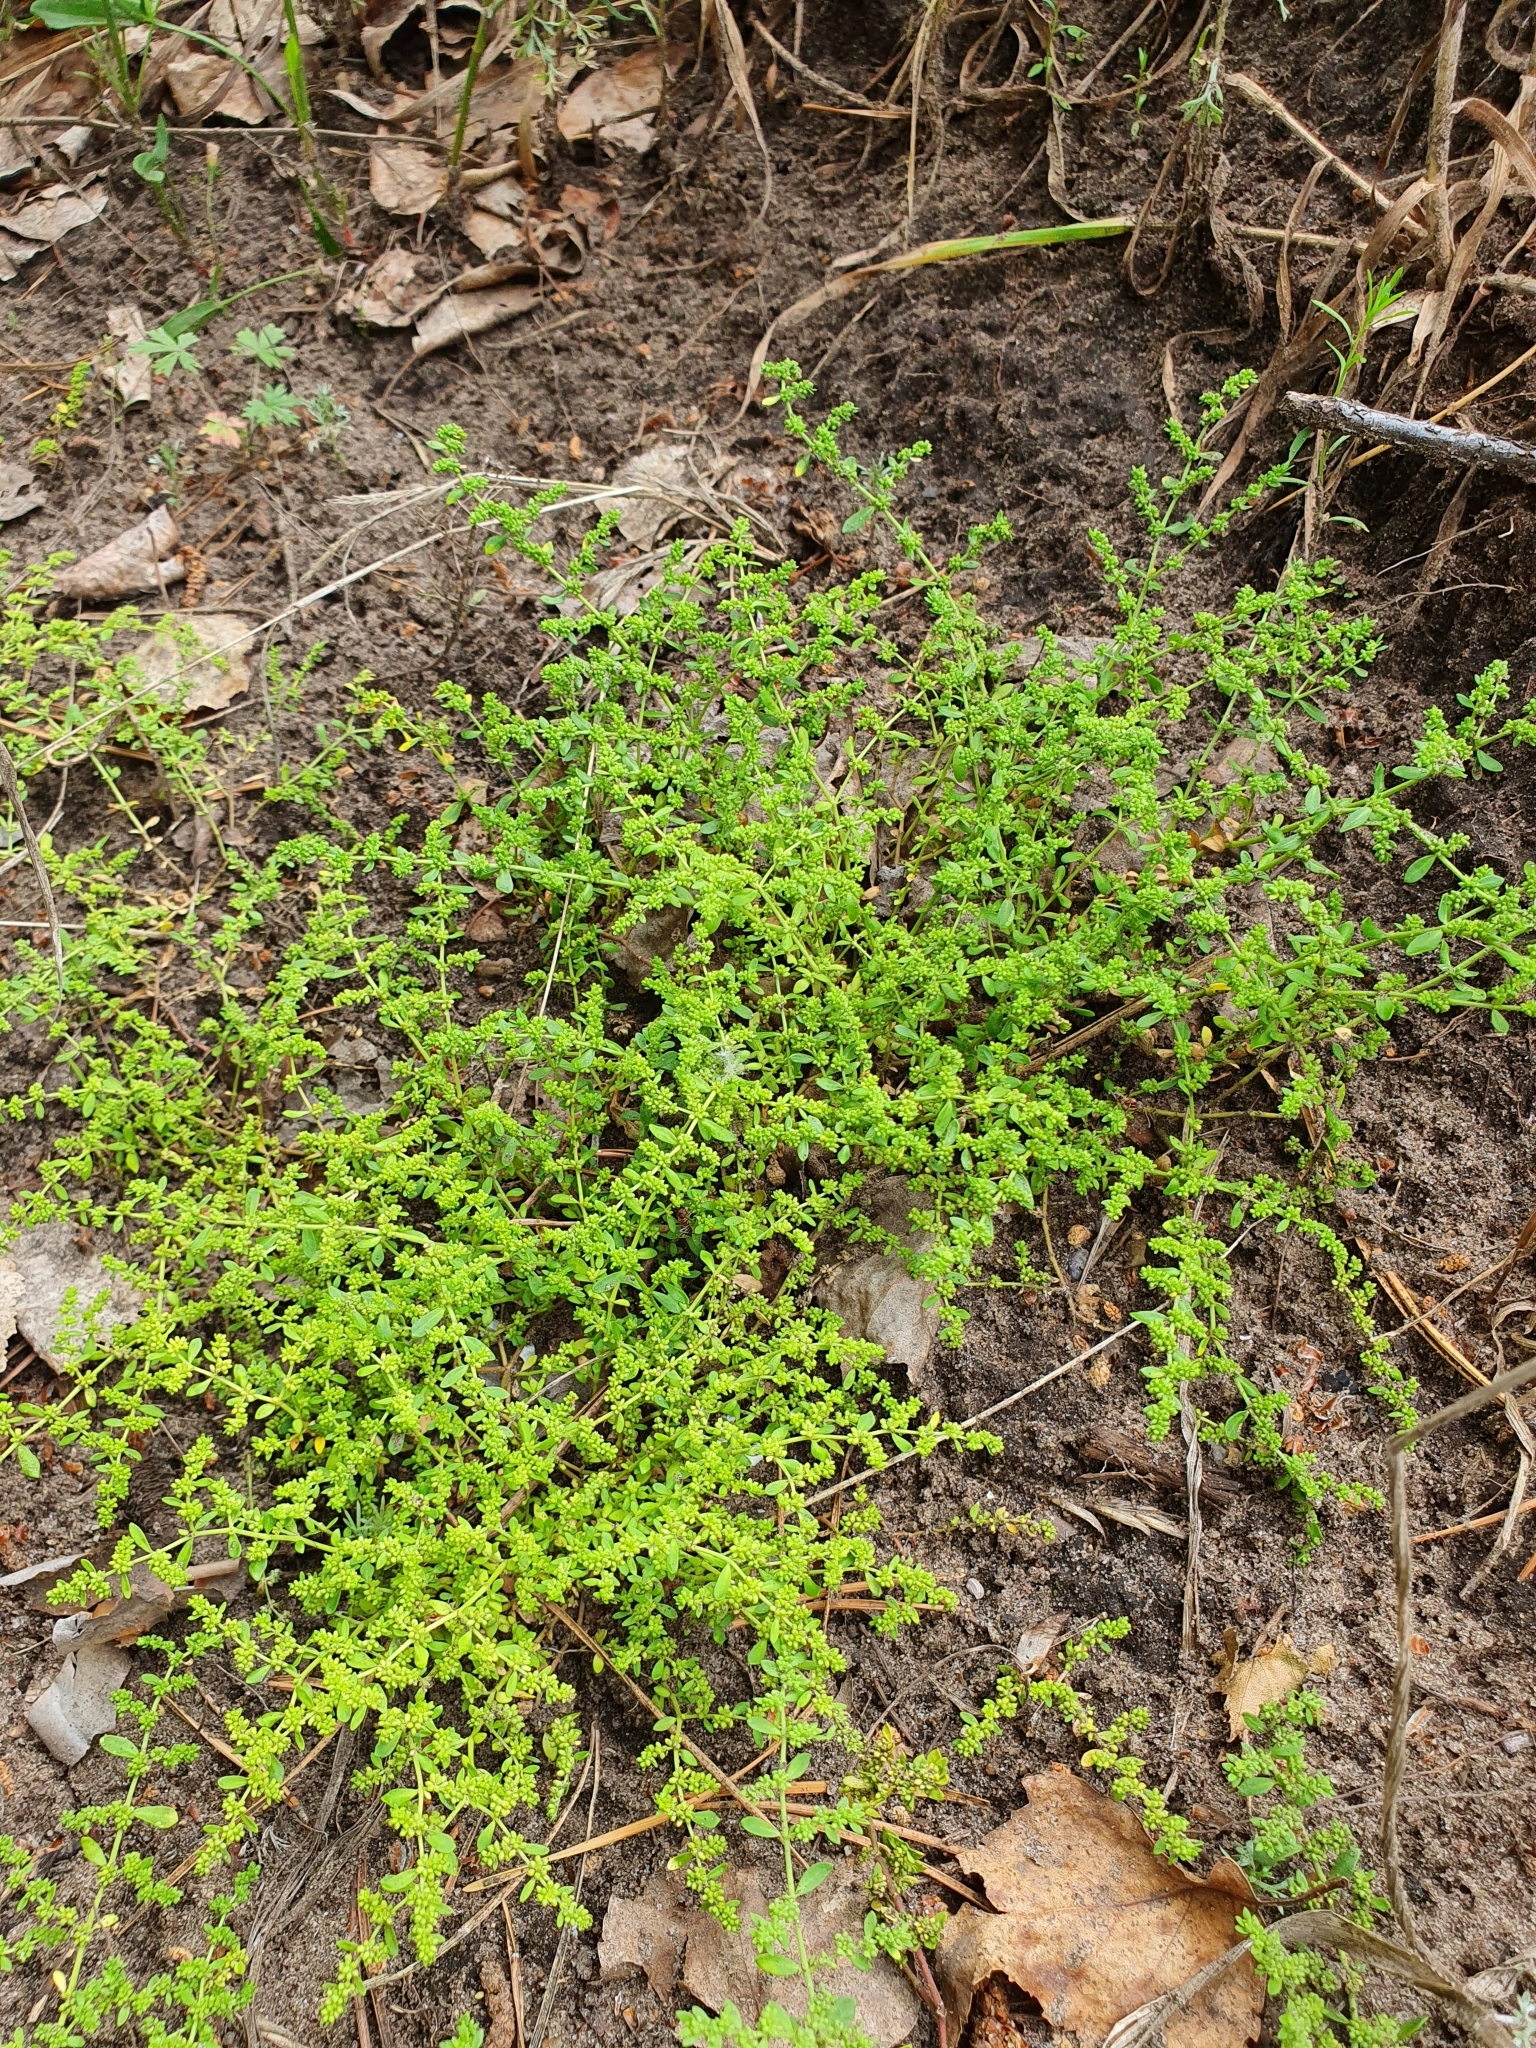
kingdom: Plantae
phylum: Tracheophyta
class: Magnoliopsida
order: Caryophyllales
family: Caryophyllaceae
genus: Herniaria
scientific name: Herniaria glabra
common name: Smooth rupturewort
